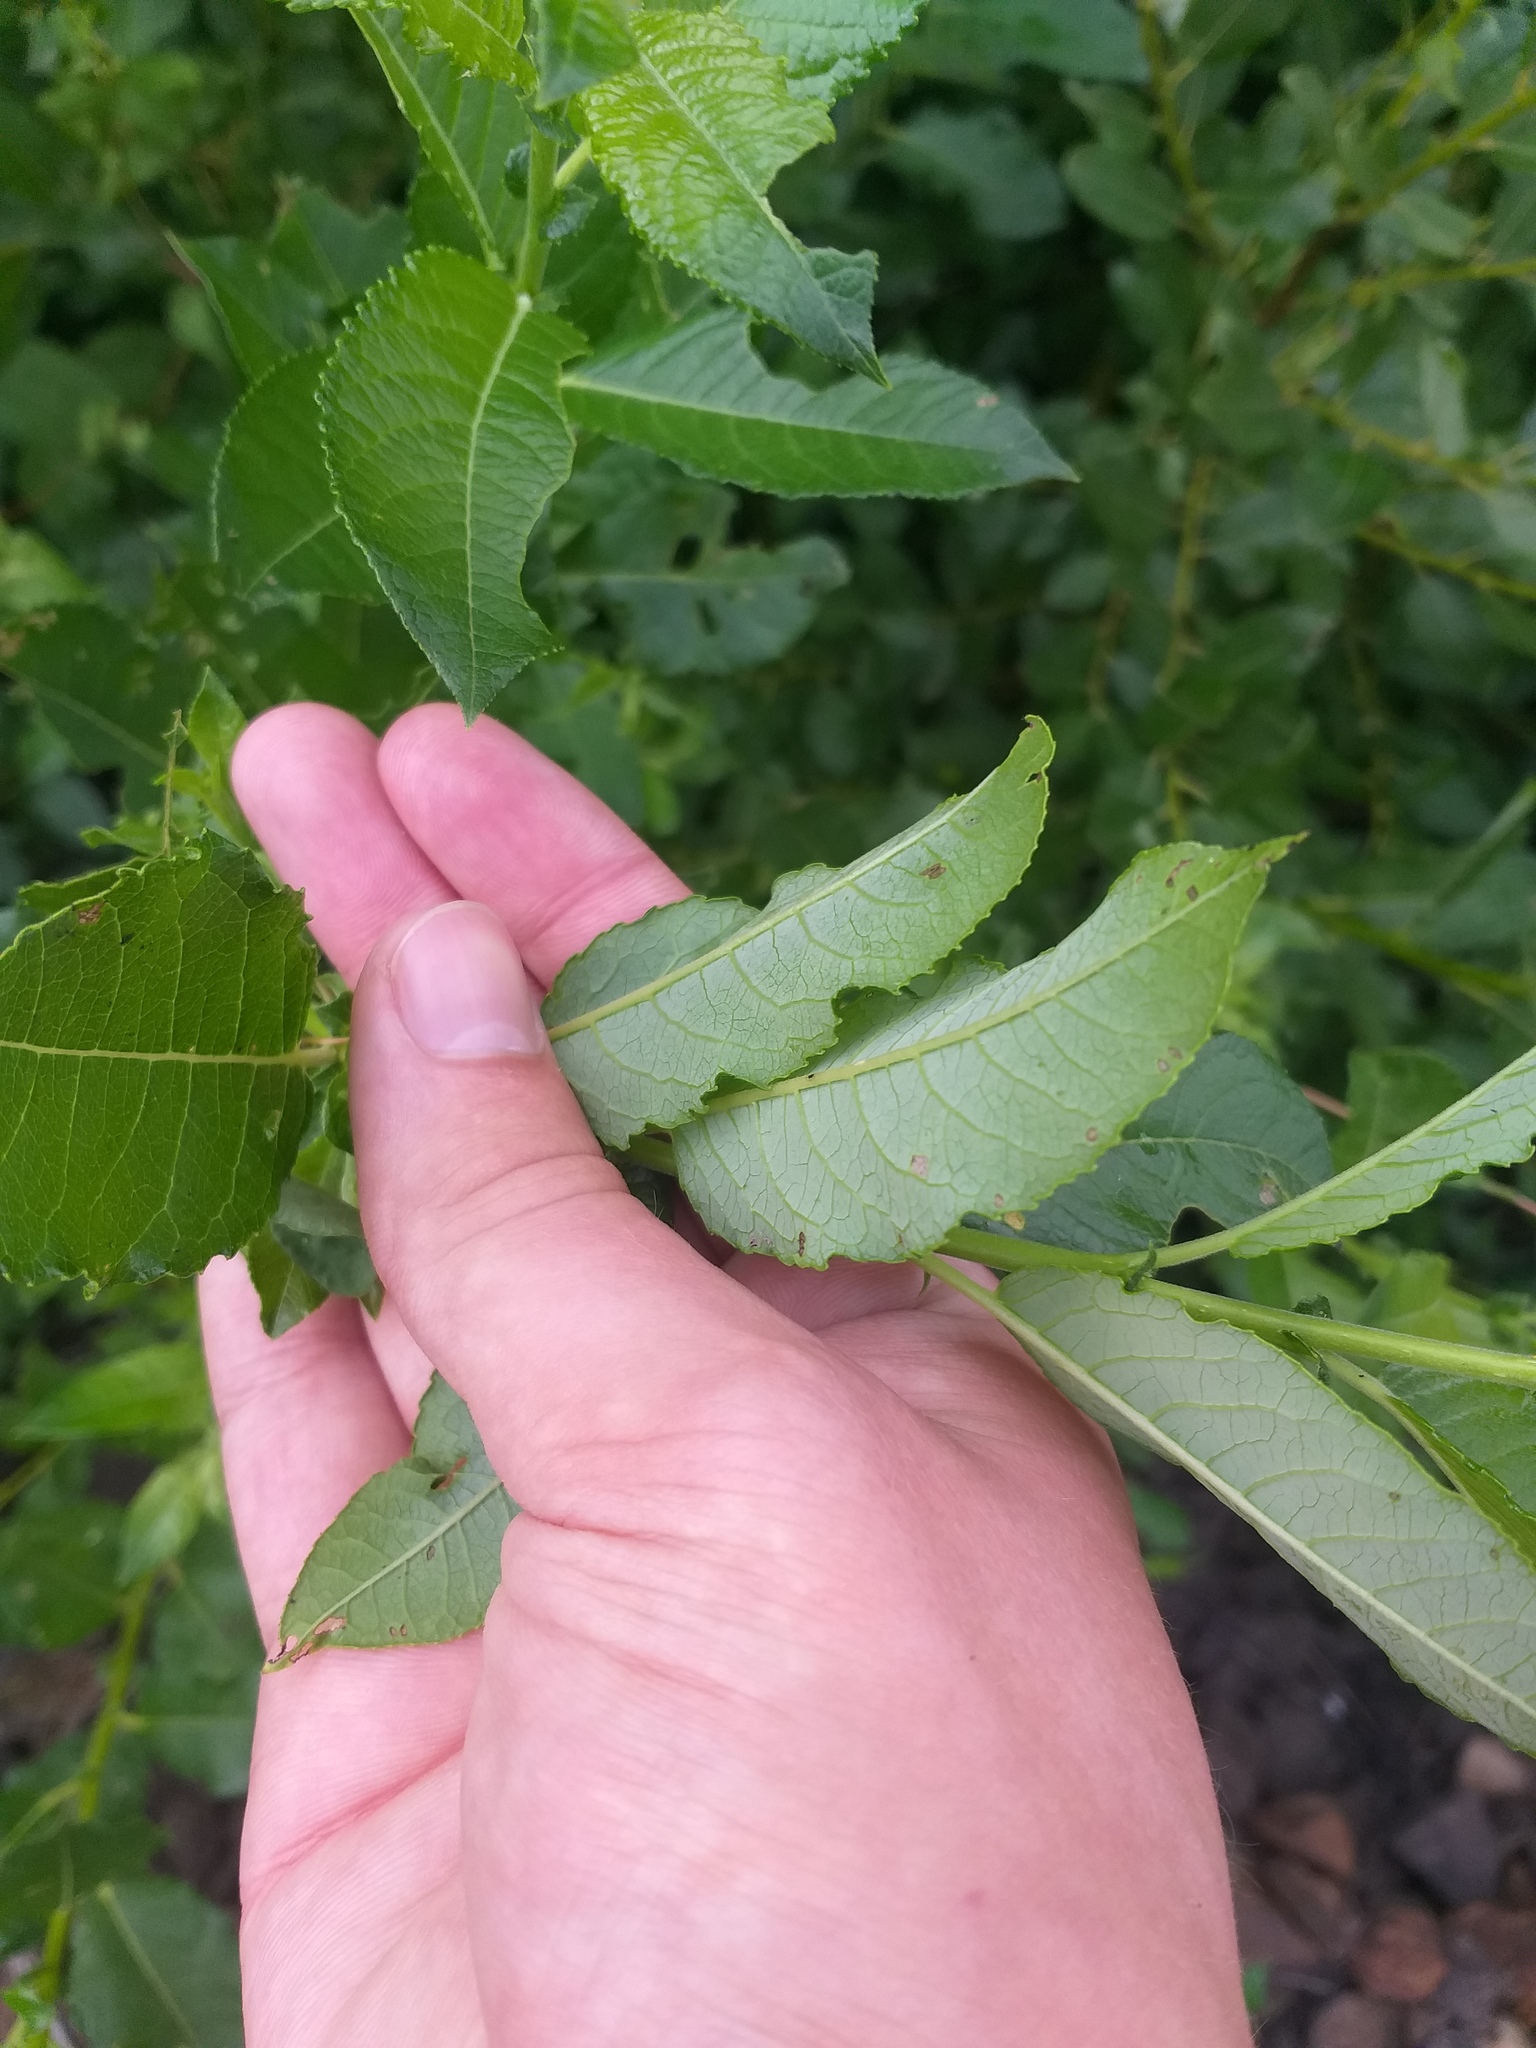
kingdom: Plantae
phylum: Tracheophyta
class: Magnoliopsida
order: Malpighiales
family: Salicaceae
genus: Salix
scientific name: Salix myrsinifolia
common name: Dark-leaved willow
